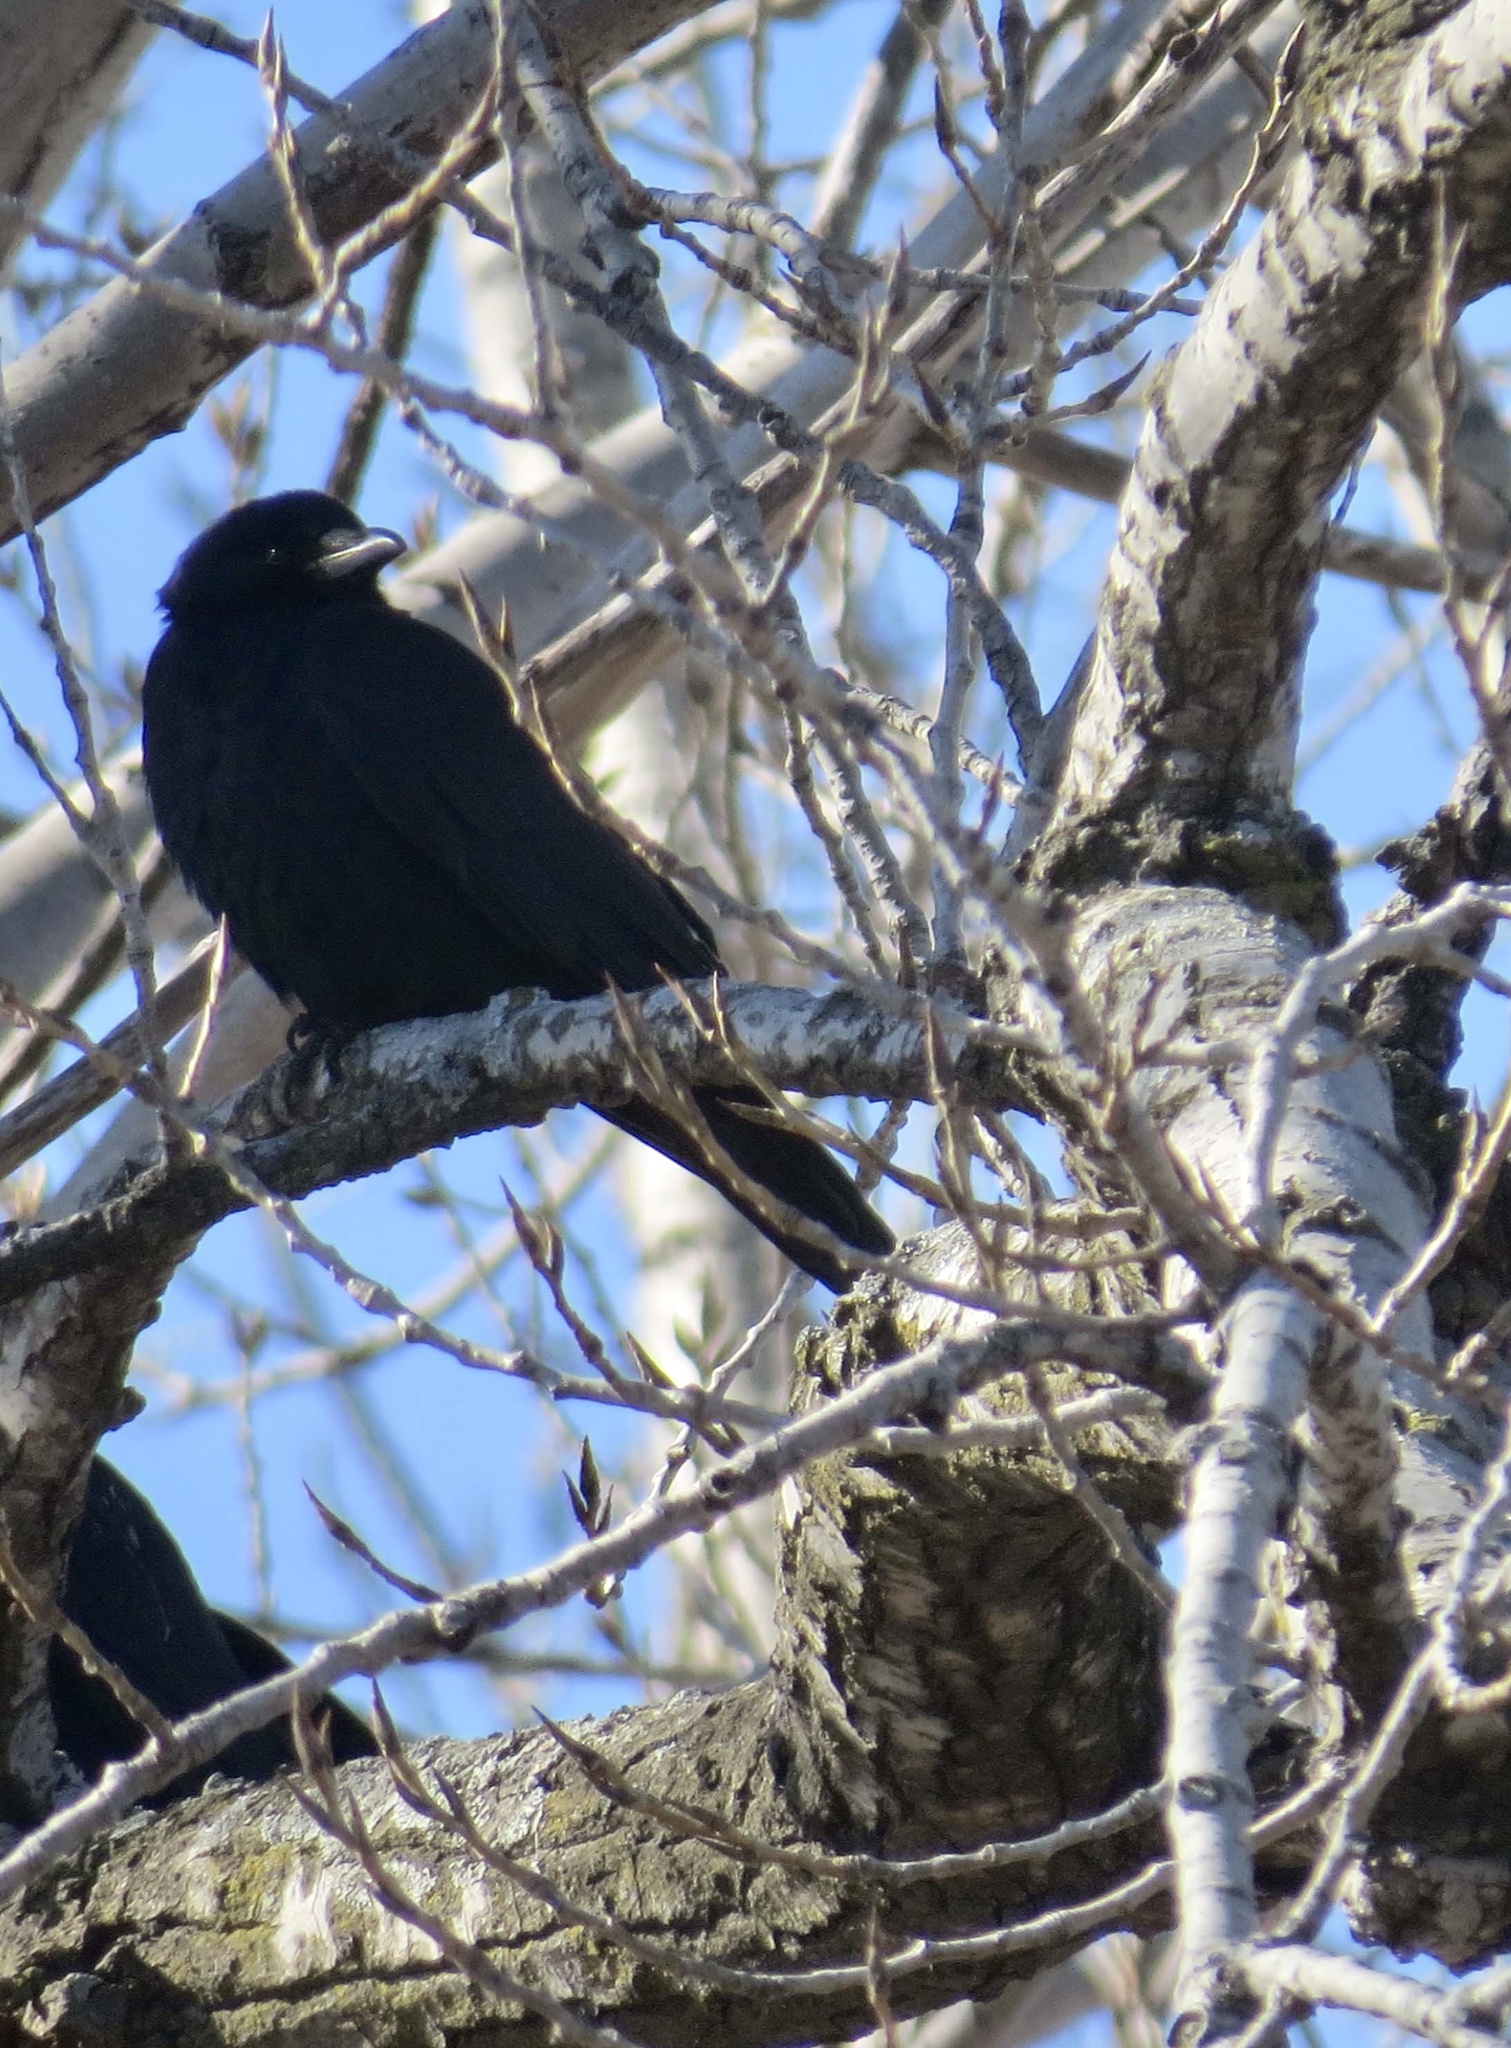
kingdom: Animalia
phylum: Chordata
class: Aves
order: Passeriformes
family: Corvidae
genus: Corvus
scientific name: Corvus ossifragus
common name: Fish crow
